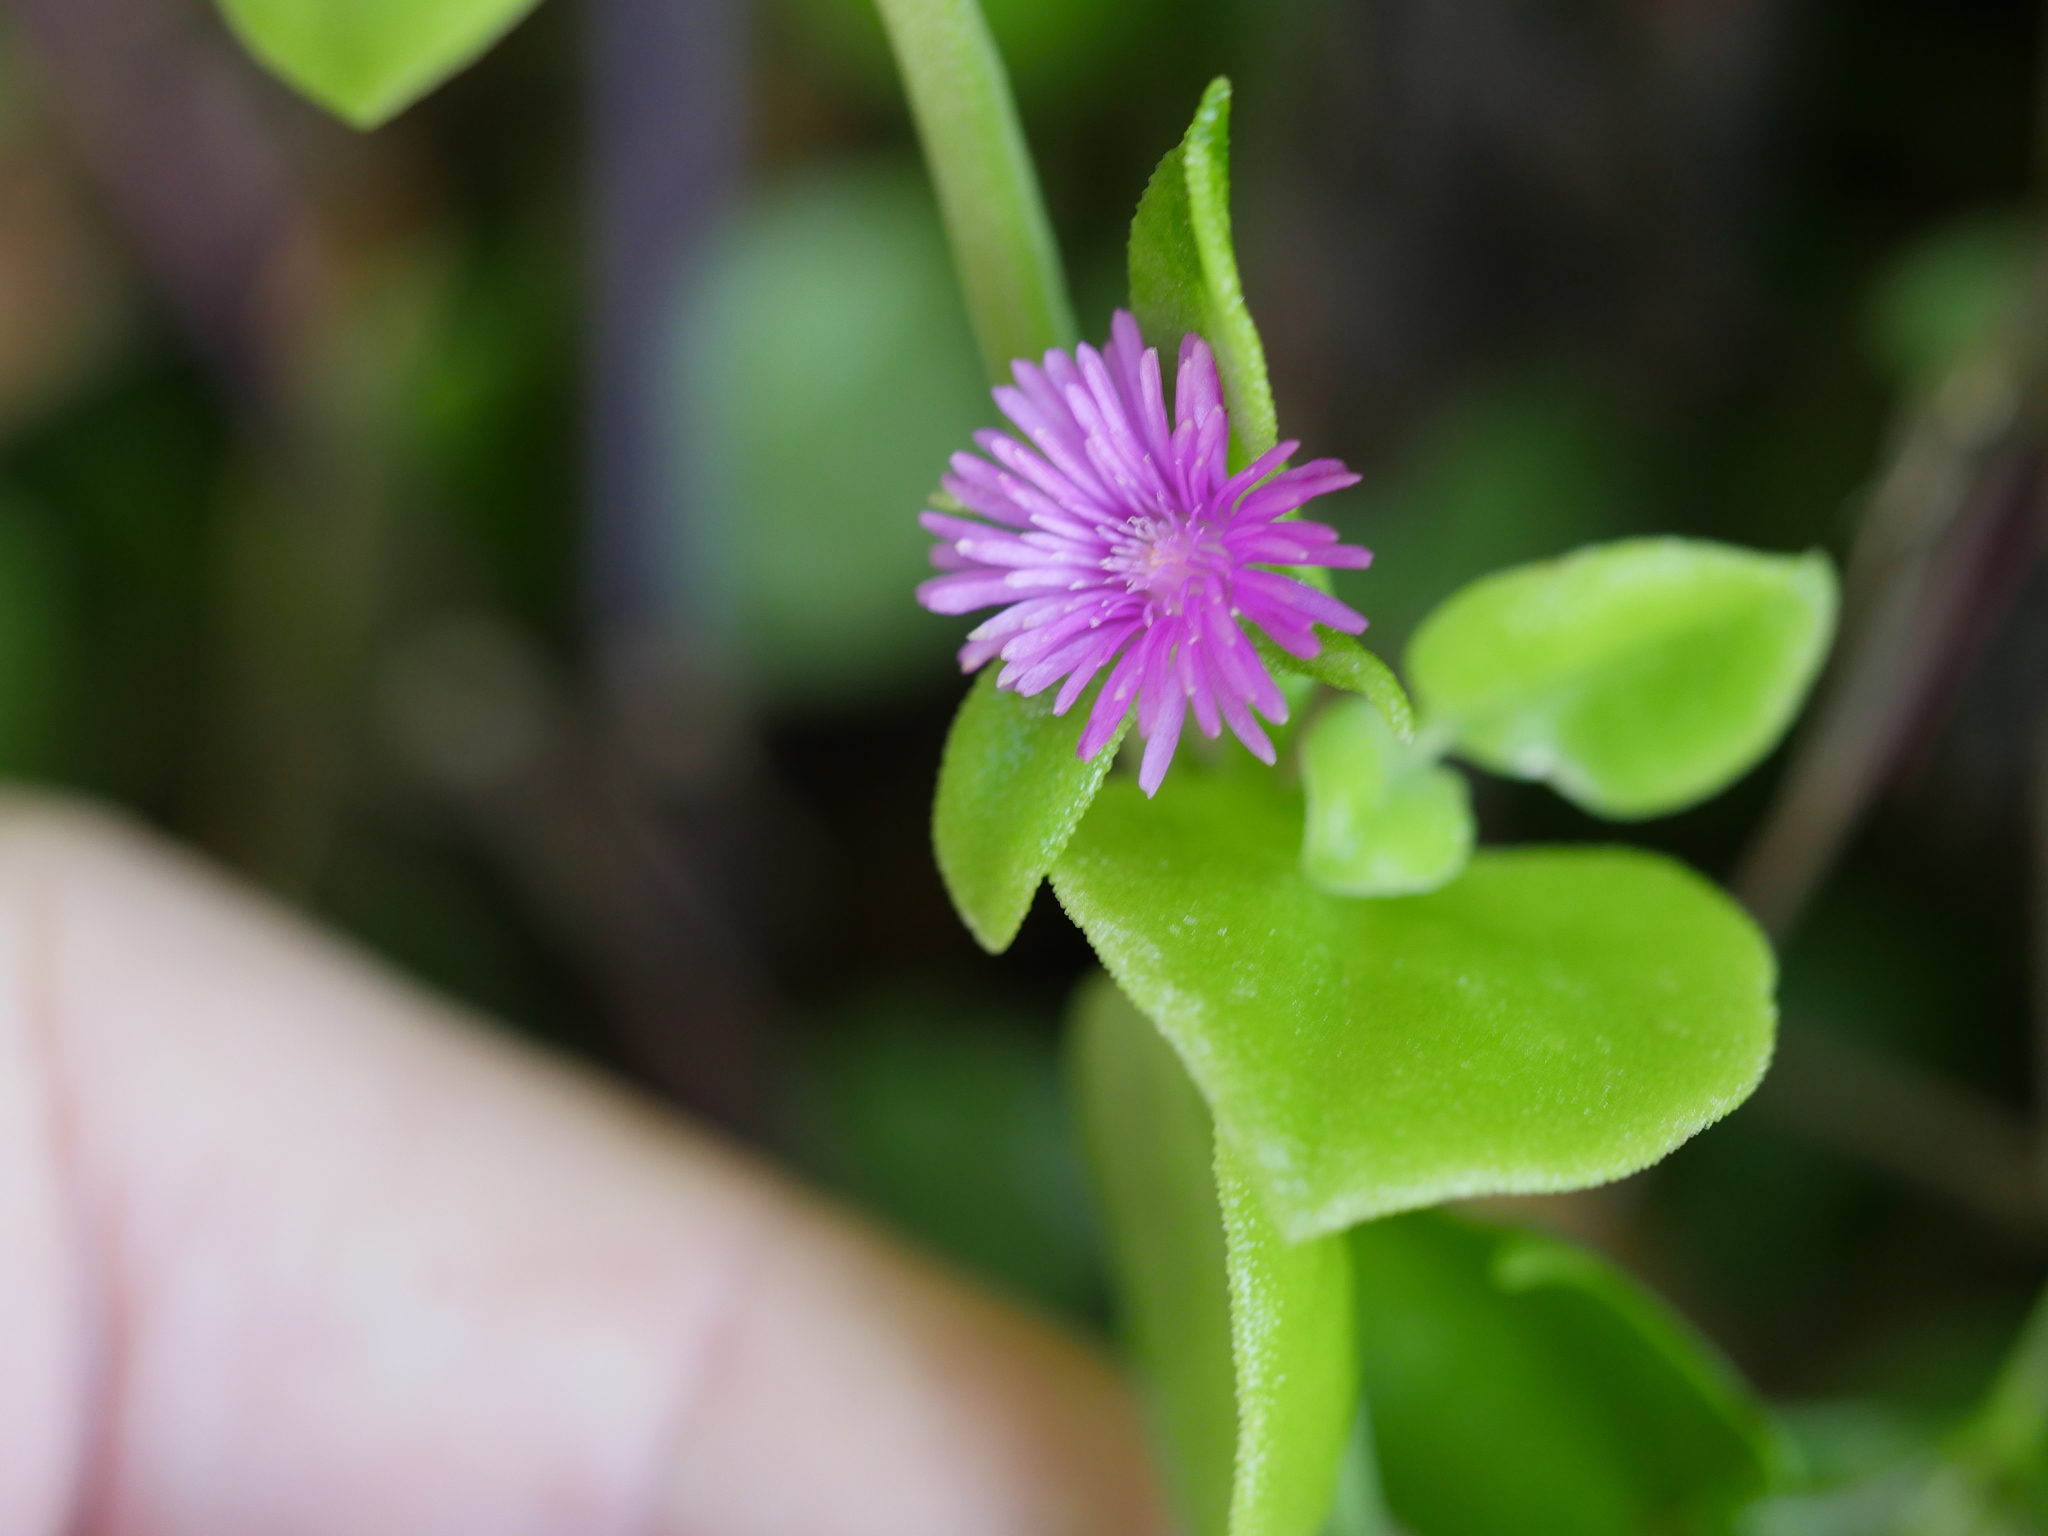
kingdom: Plantae
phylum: Tracheophyta
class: Magnoliopsida
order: Caryophyllales
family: Aizoaceae
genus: Mesembryanthemum
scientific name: Mesembryanthemum cordifolium
